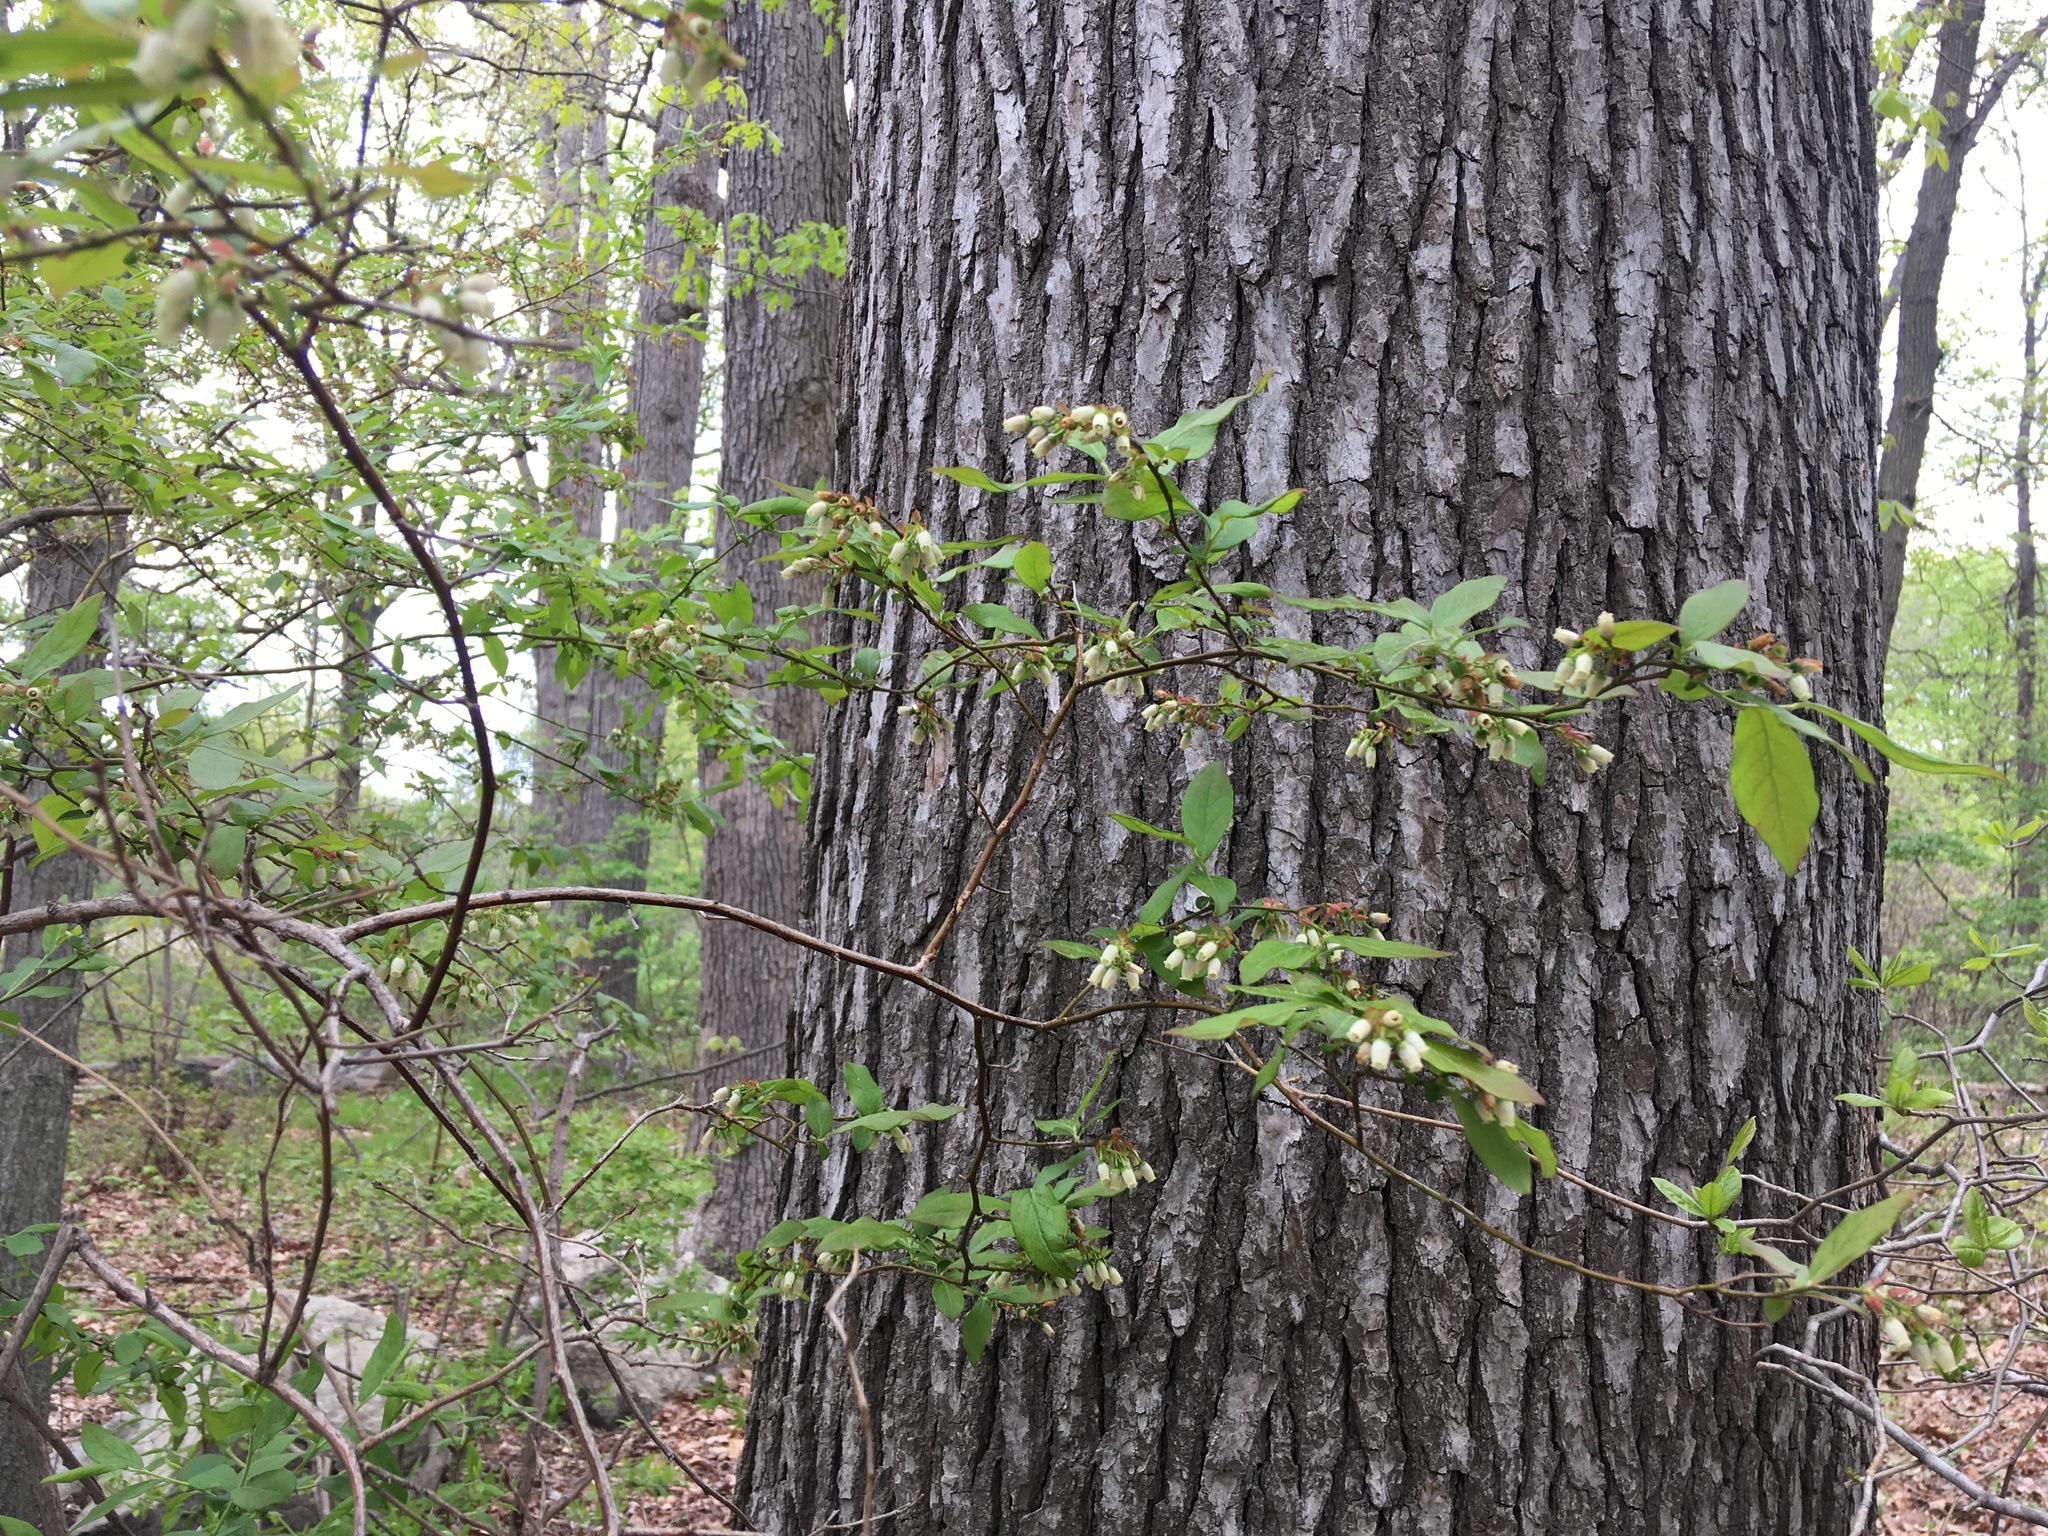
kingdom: Plantae
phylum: Tracheophyta
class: Magnoliopsida
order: Ericales
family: Ericaceae
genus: Vaccinium
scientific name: Vaccinium corymbosum
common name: Blueberry
